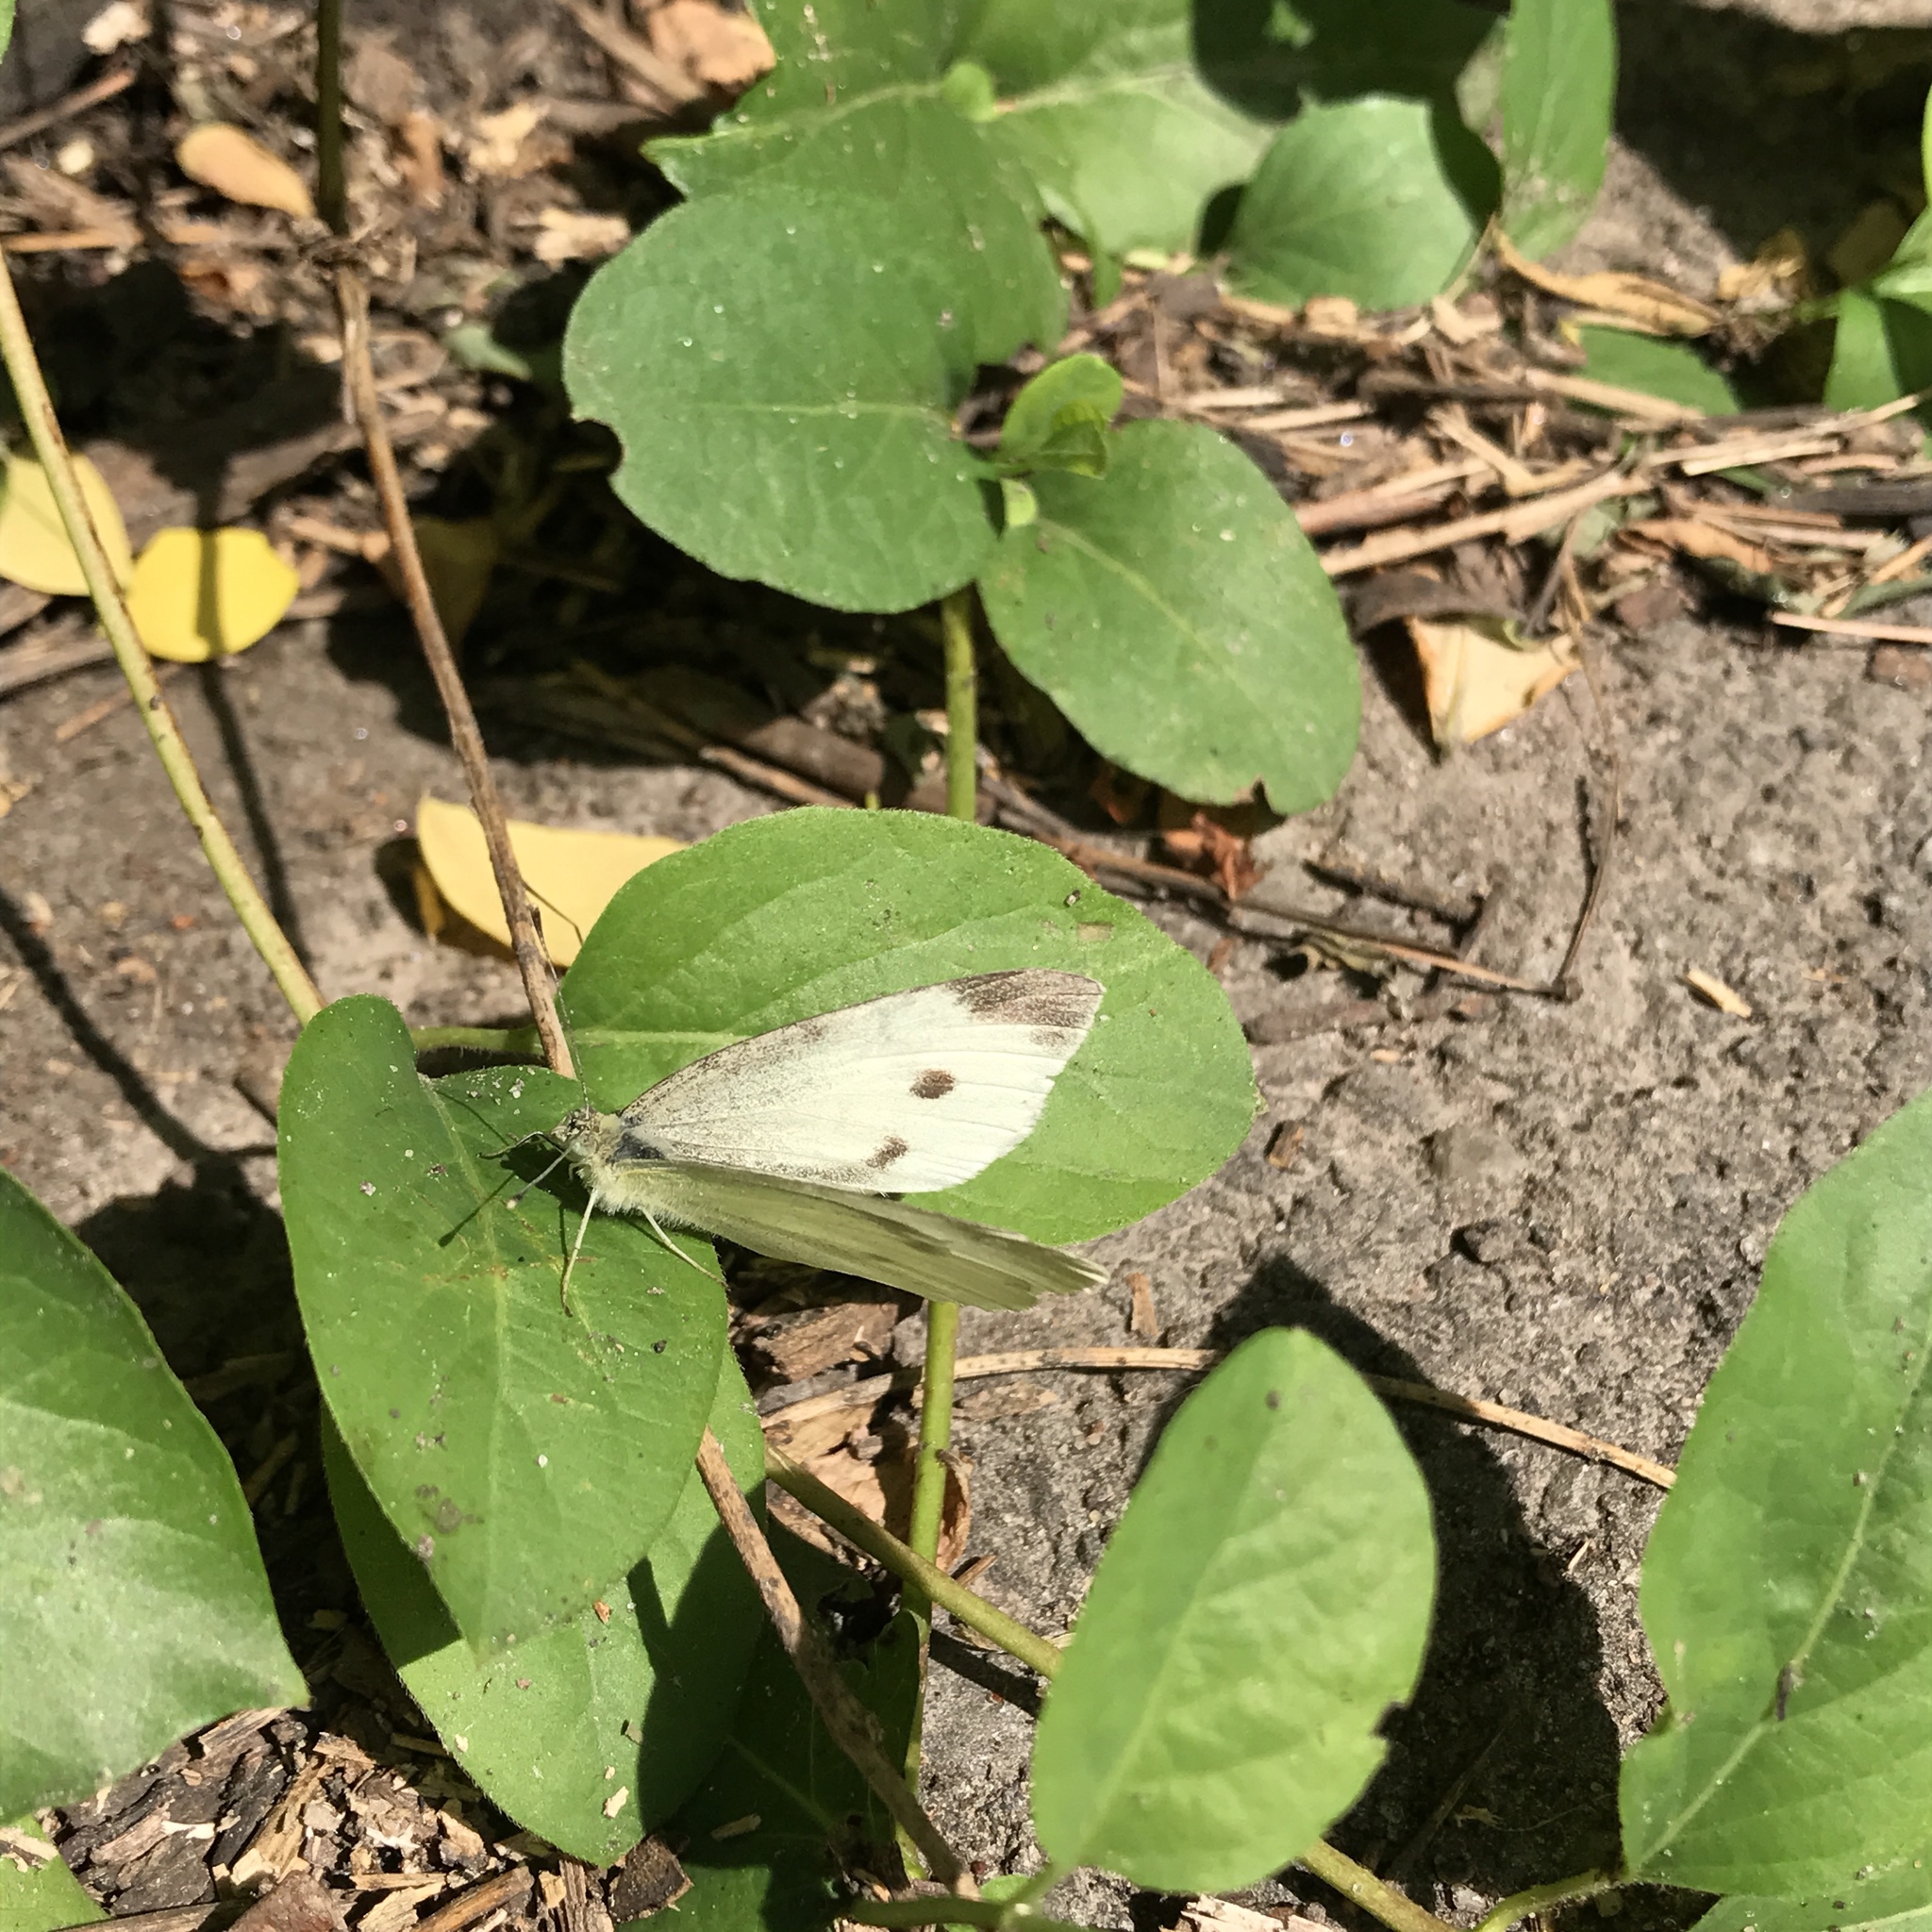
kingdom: Animalia
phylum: Arthropoda
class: Insecta
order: Lepidoptera
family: Pieridae
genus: Pieris
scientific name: Pieris rapae
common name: Small white
